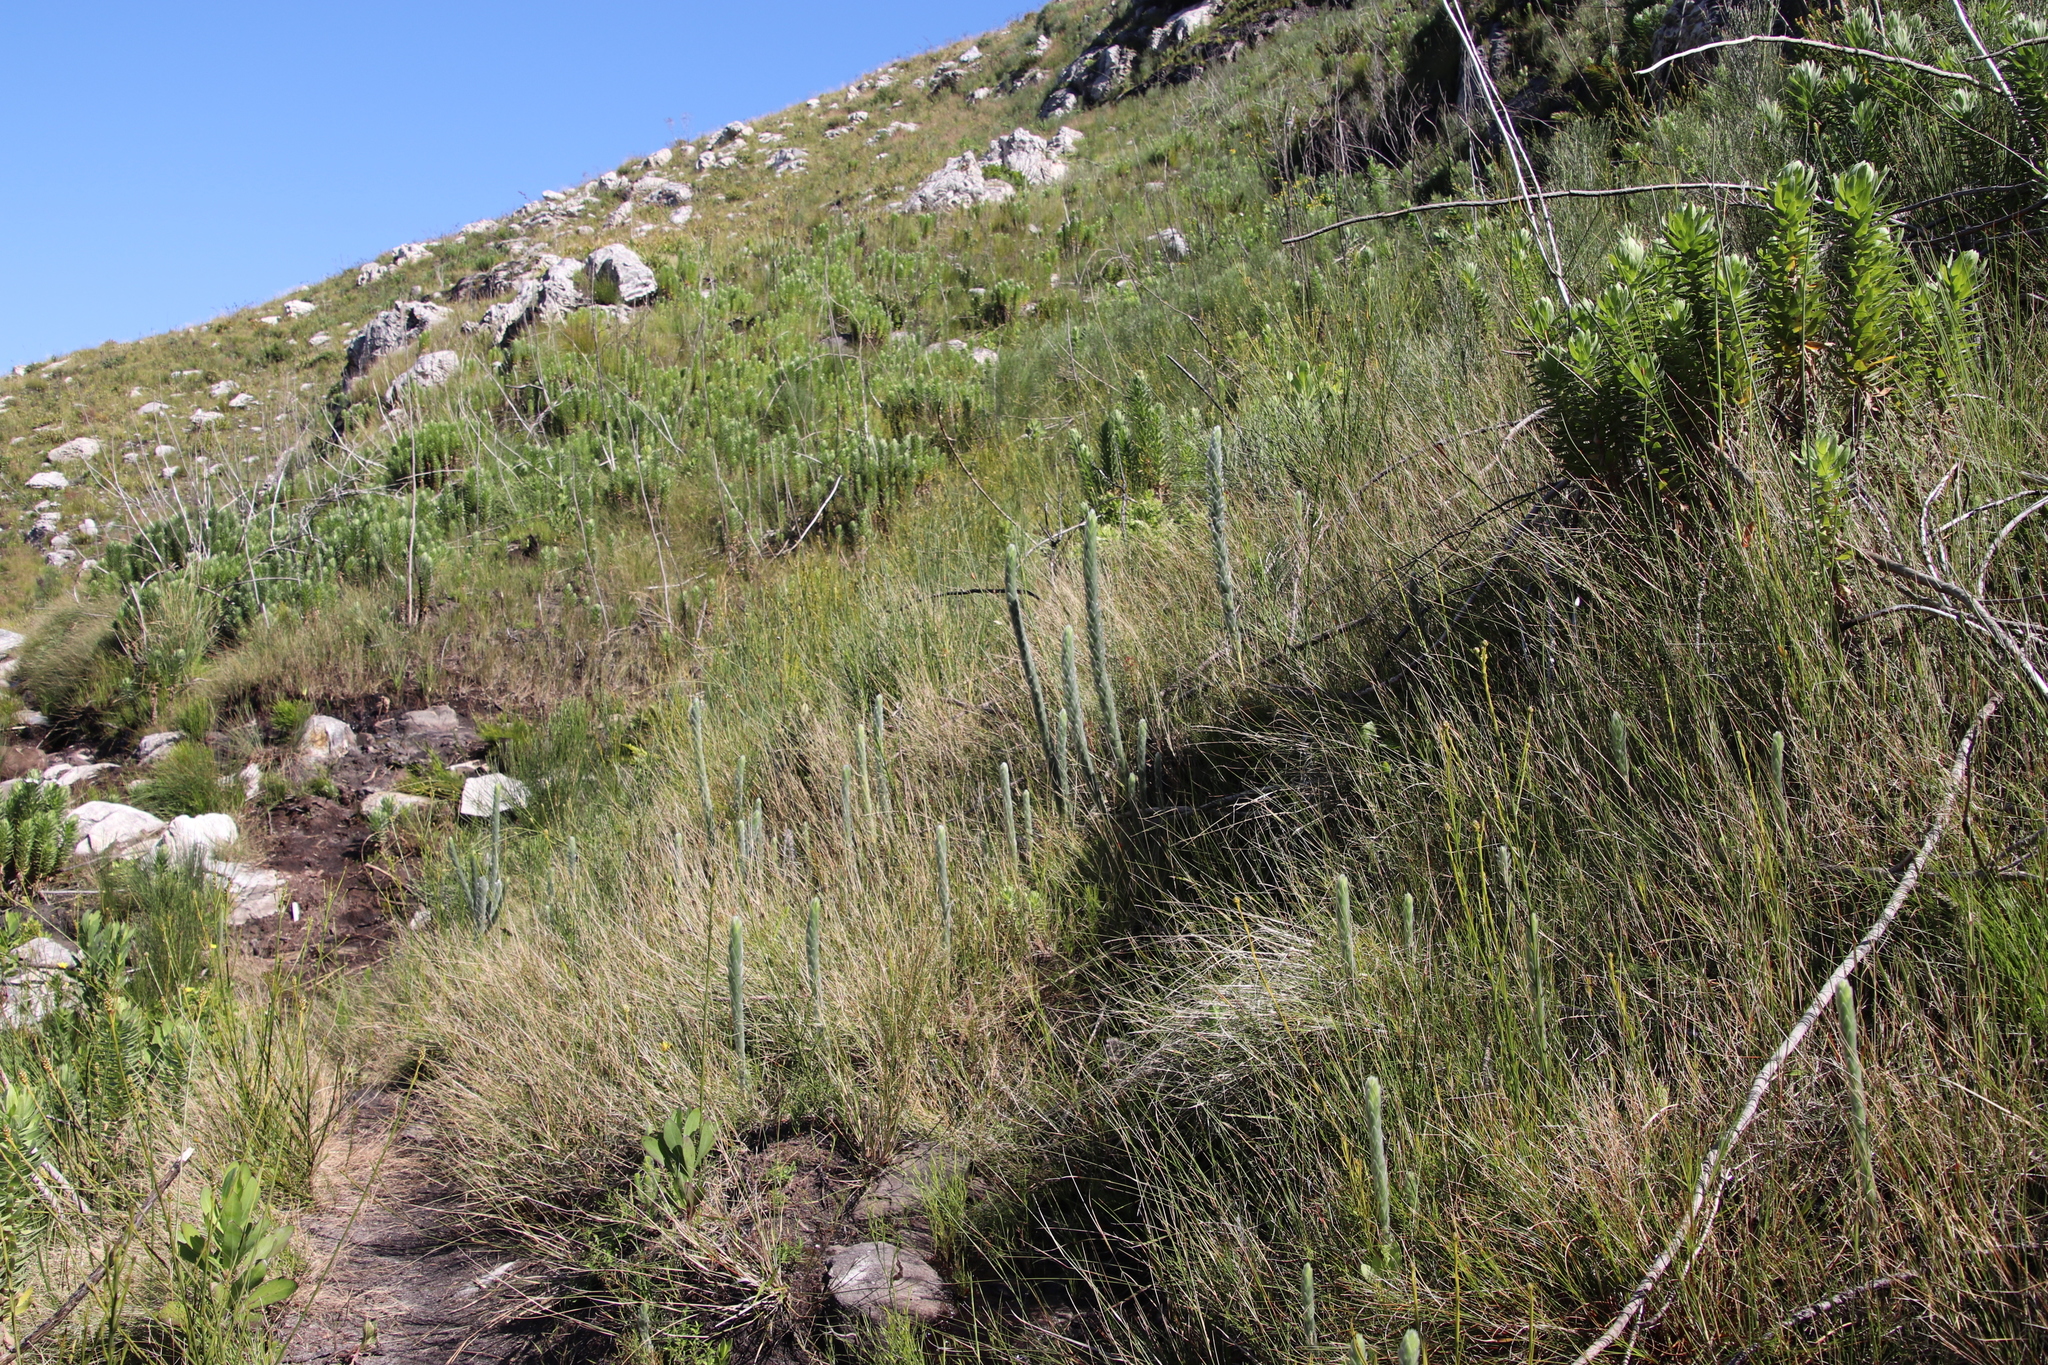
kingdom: Plantae
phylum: Tracheophyta
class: Magnoliopsida
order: Fabales
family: Fabaceae
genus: Liparia
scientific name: Liparia vestita
